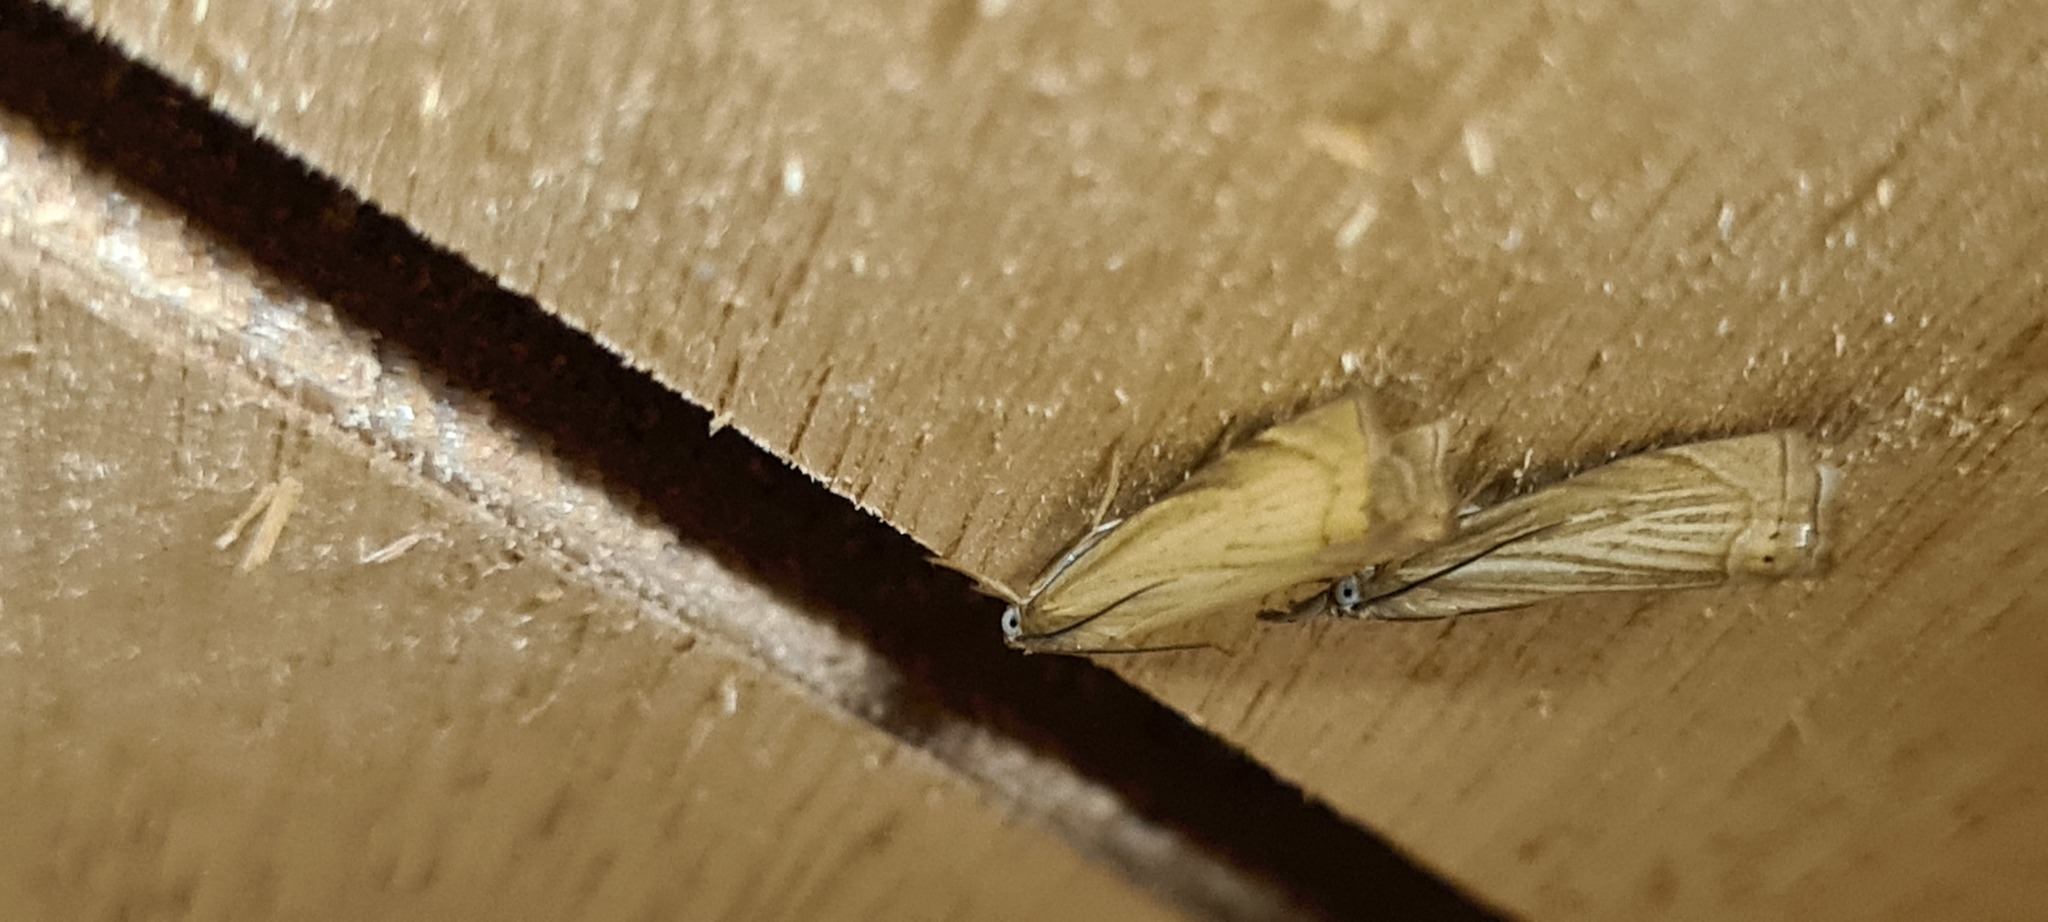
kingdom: Animalia
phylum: Arthropoda
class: Insecta
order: Lepidoptera
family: Crambidae
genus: Chrysoteuchia
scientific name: Chrysoteuchia culmella
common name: Garden grass-veneer
